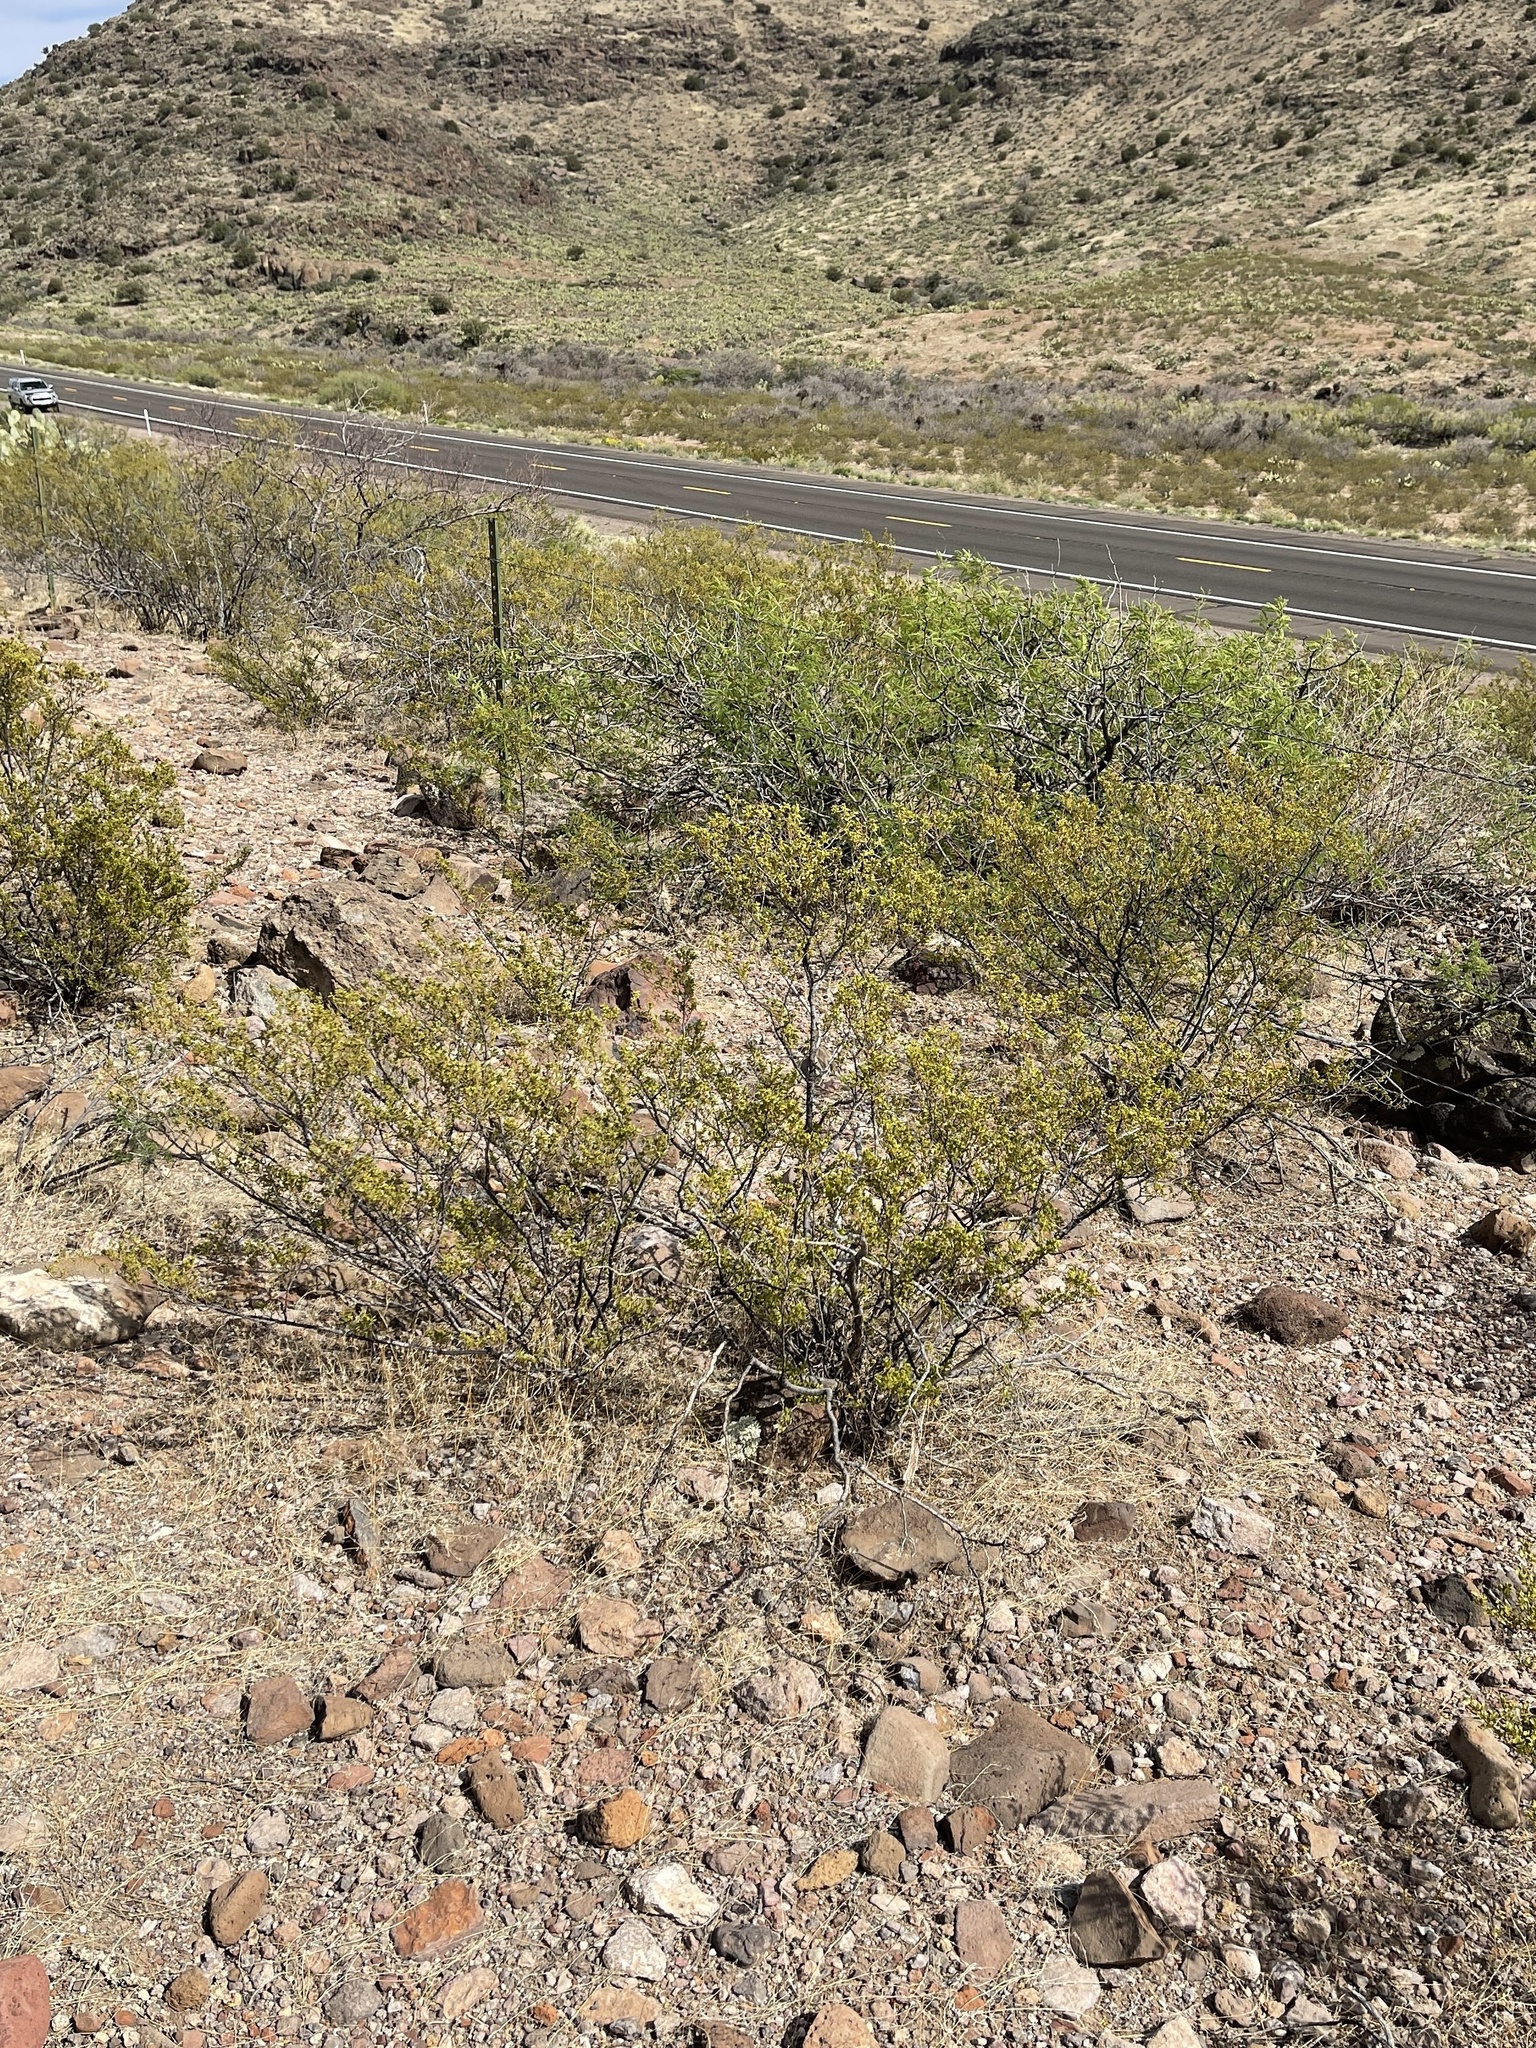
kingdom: Plantae
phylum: Tracheophyta
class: Magnoliopsida
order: Zygophyllales
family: Zygophyllaceae
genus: Larrea
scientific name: Larrea tridentata
